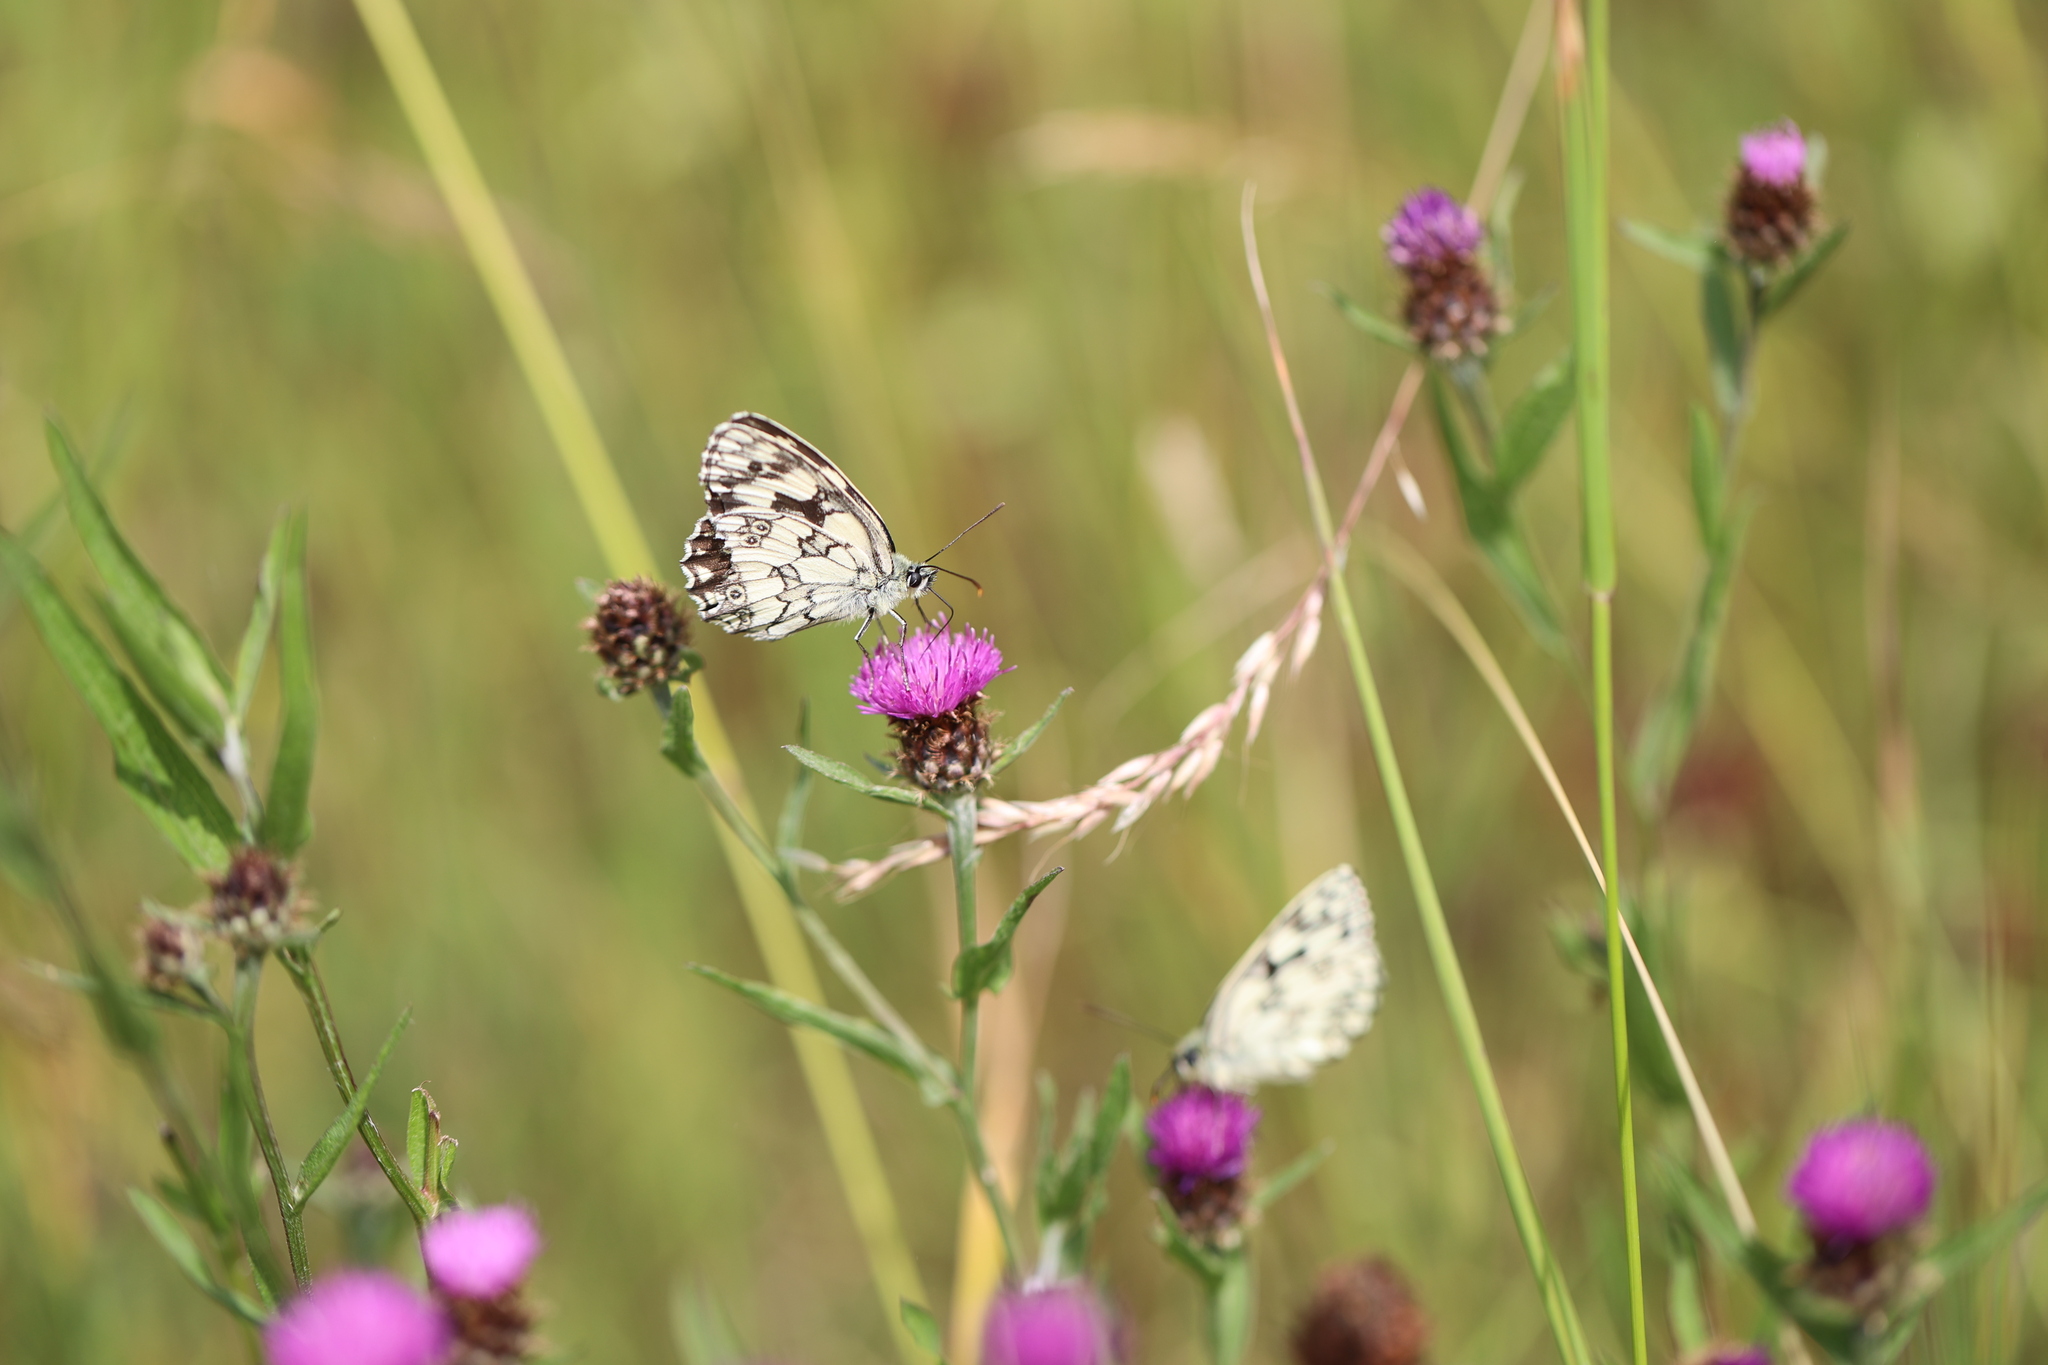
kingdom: Animalia
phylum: Arthropoda
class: Insecta
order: Lepidoptera
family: Nymphalidae
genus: Melanargia
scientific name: Melanargia galathea
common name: Marbled white
